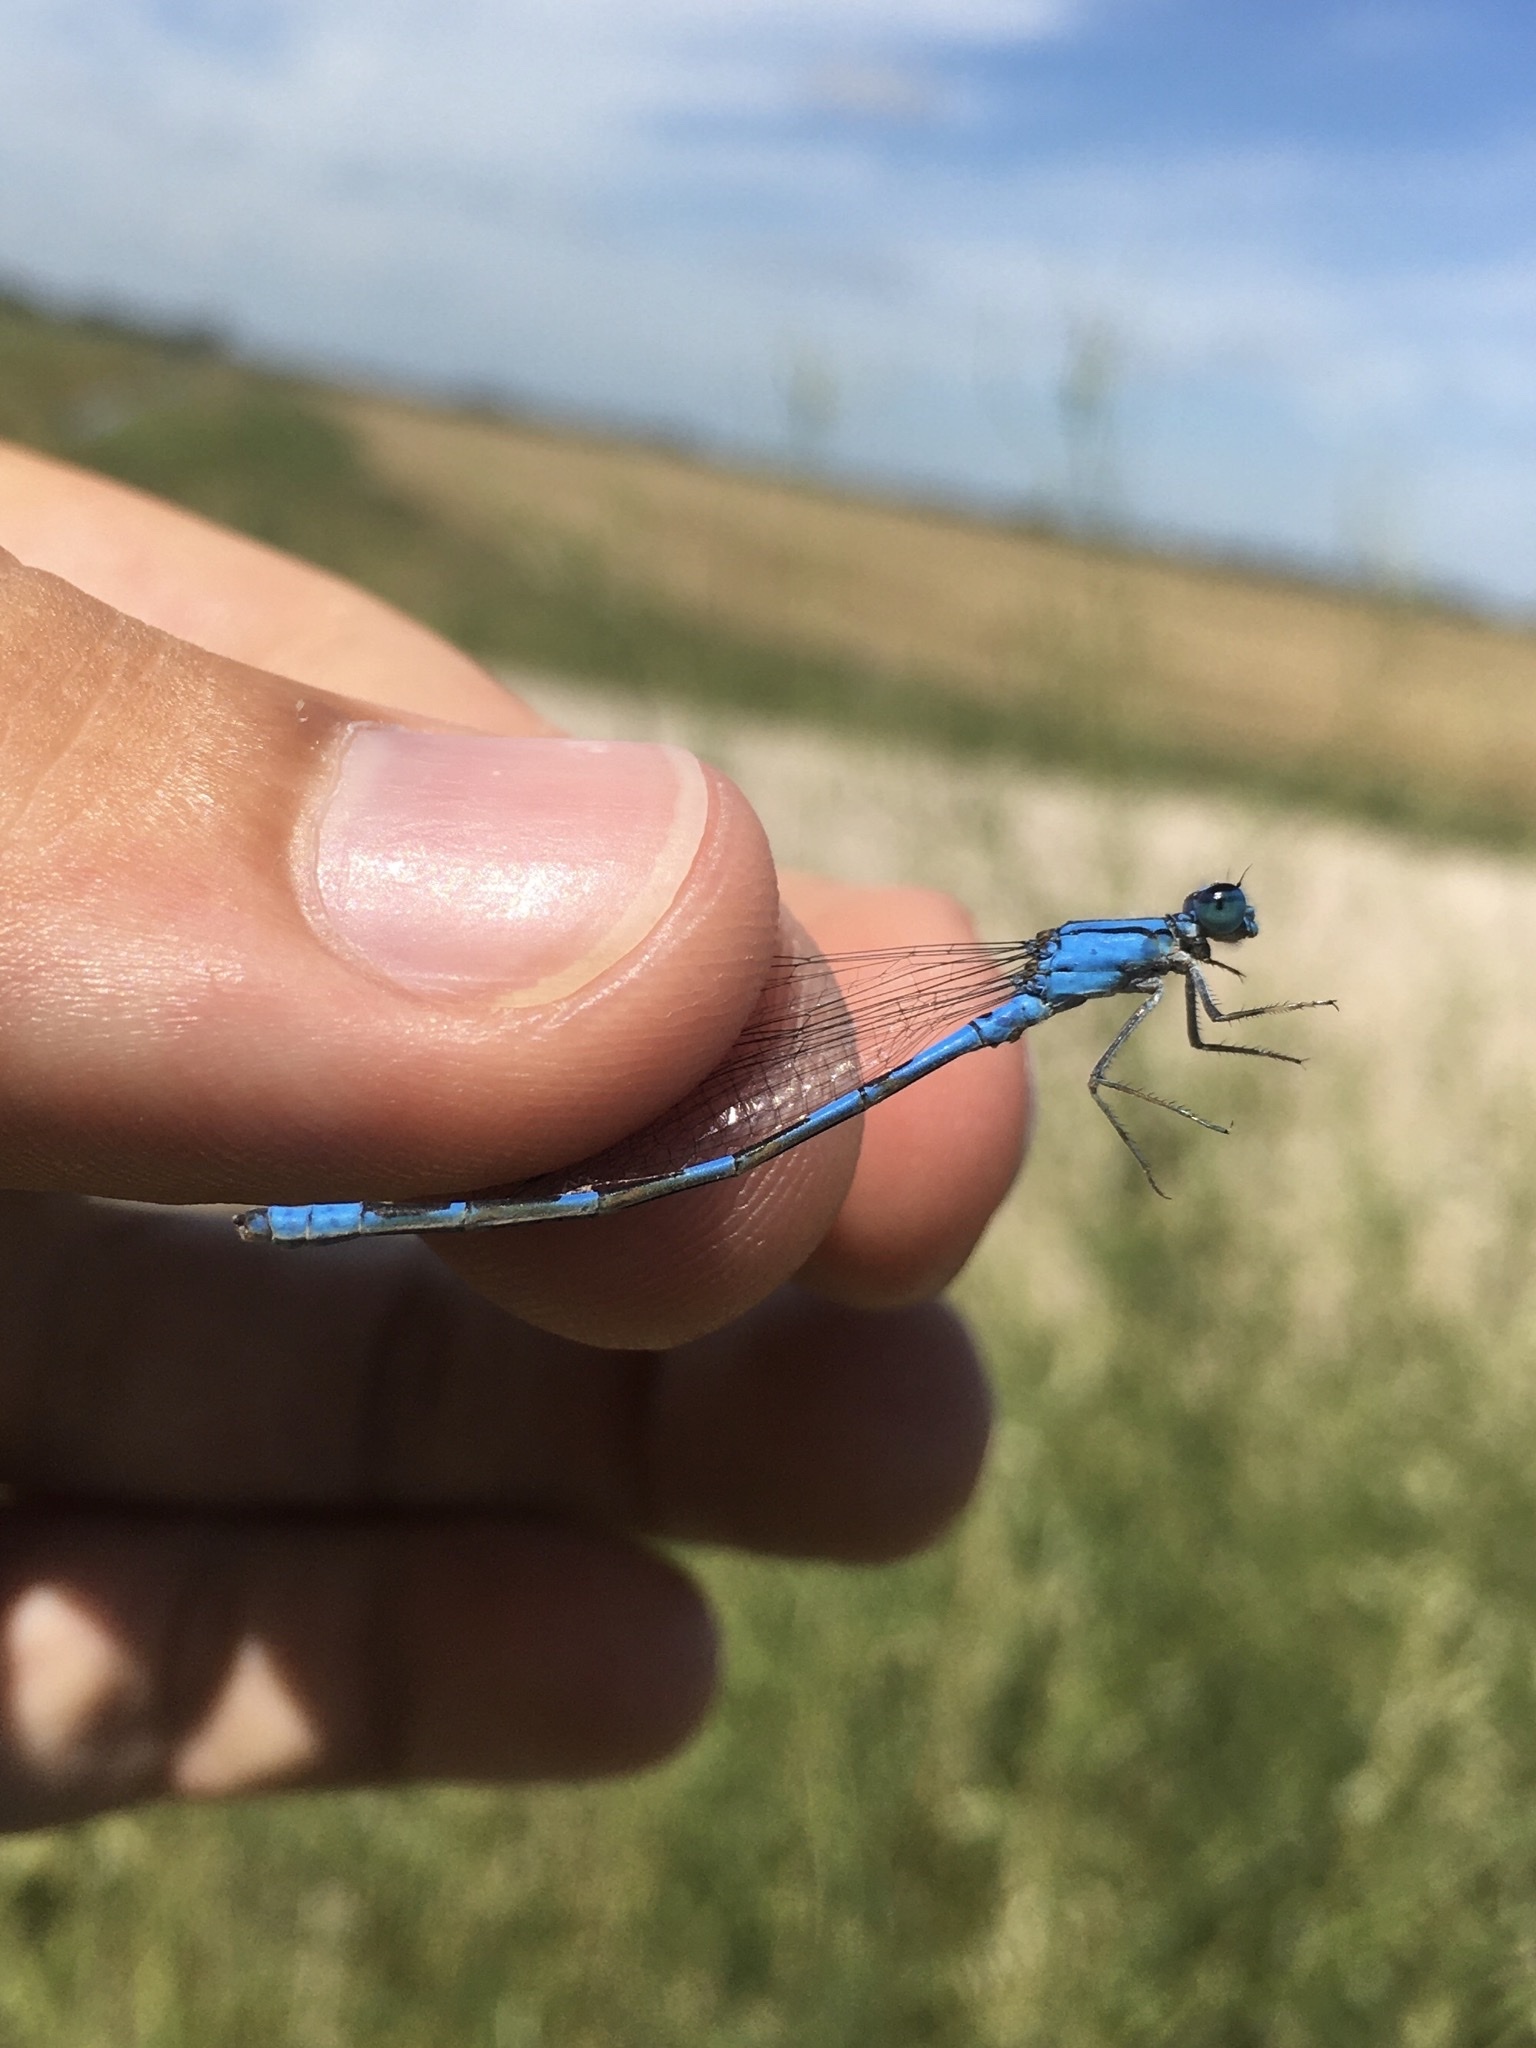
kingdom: Animalia
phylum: Arthropoda
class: Insecta
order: Odonata
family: Coenagrionidae
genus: Enallagma
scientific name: Enallagma carunculatum
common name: Tule bluet
